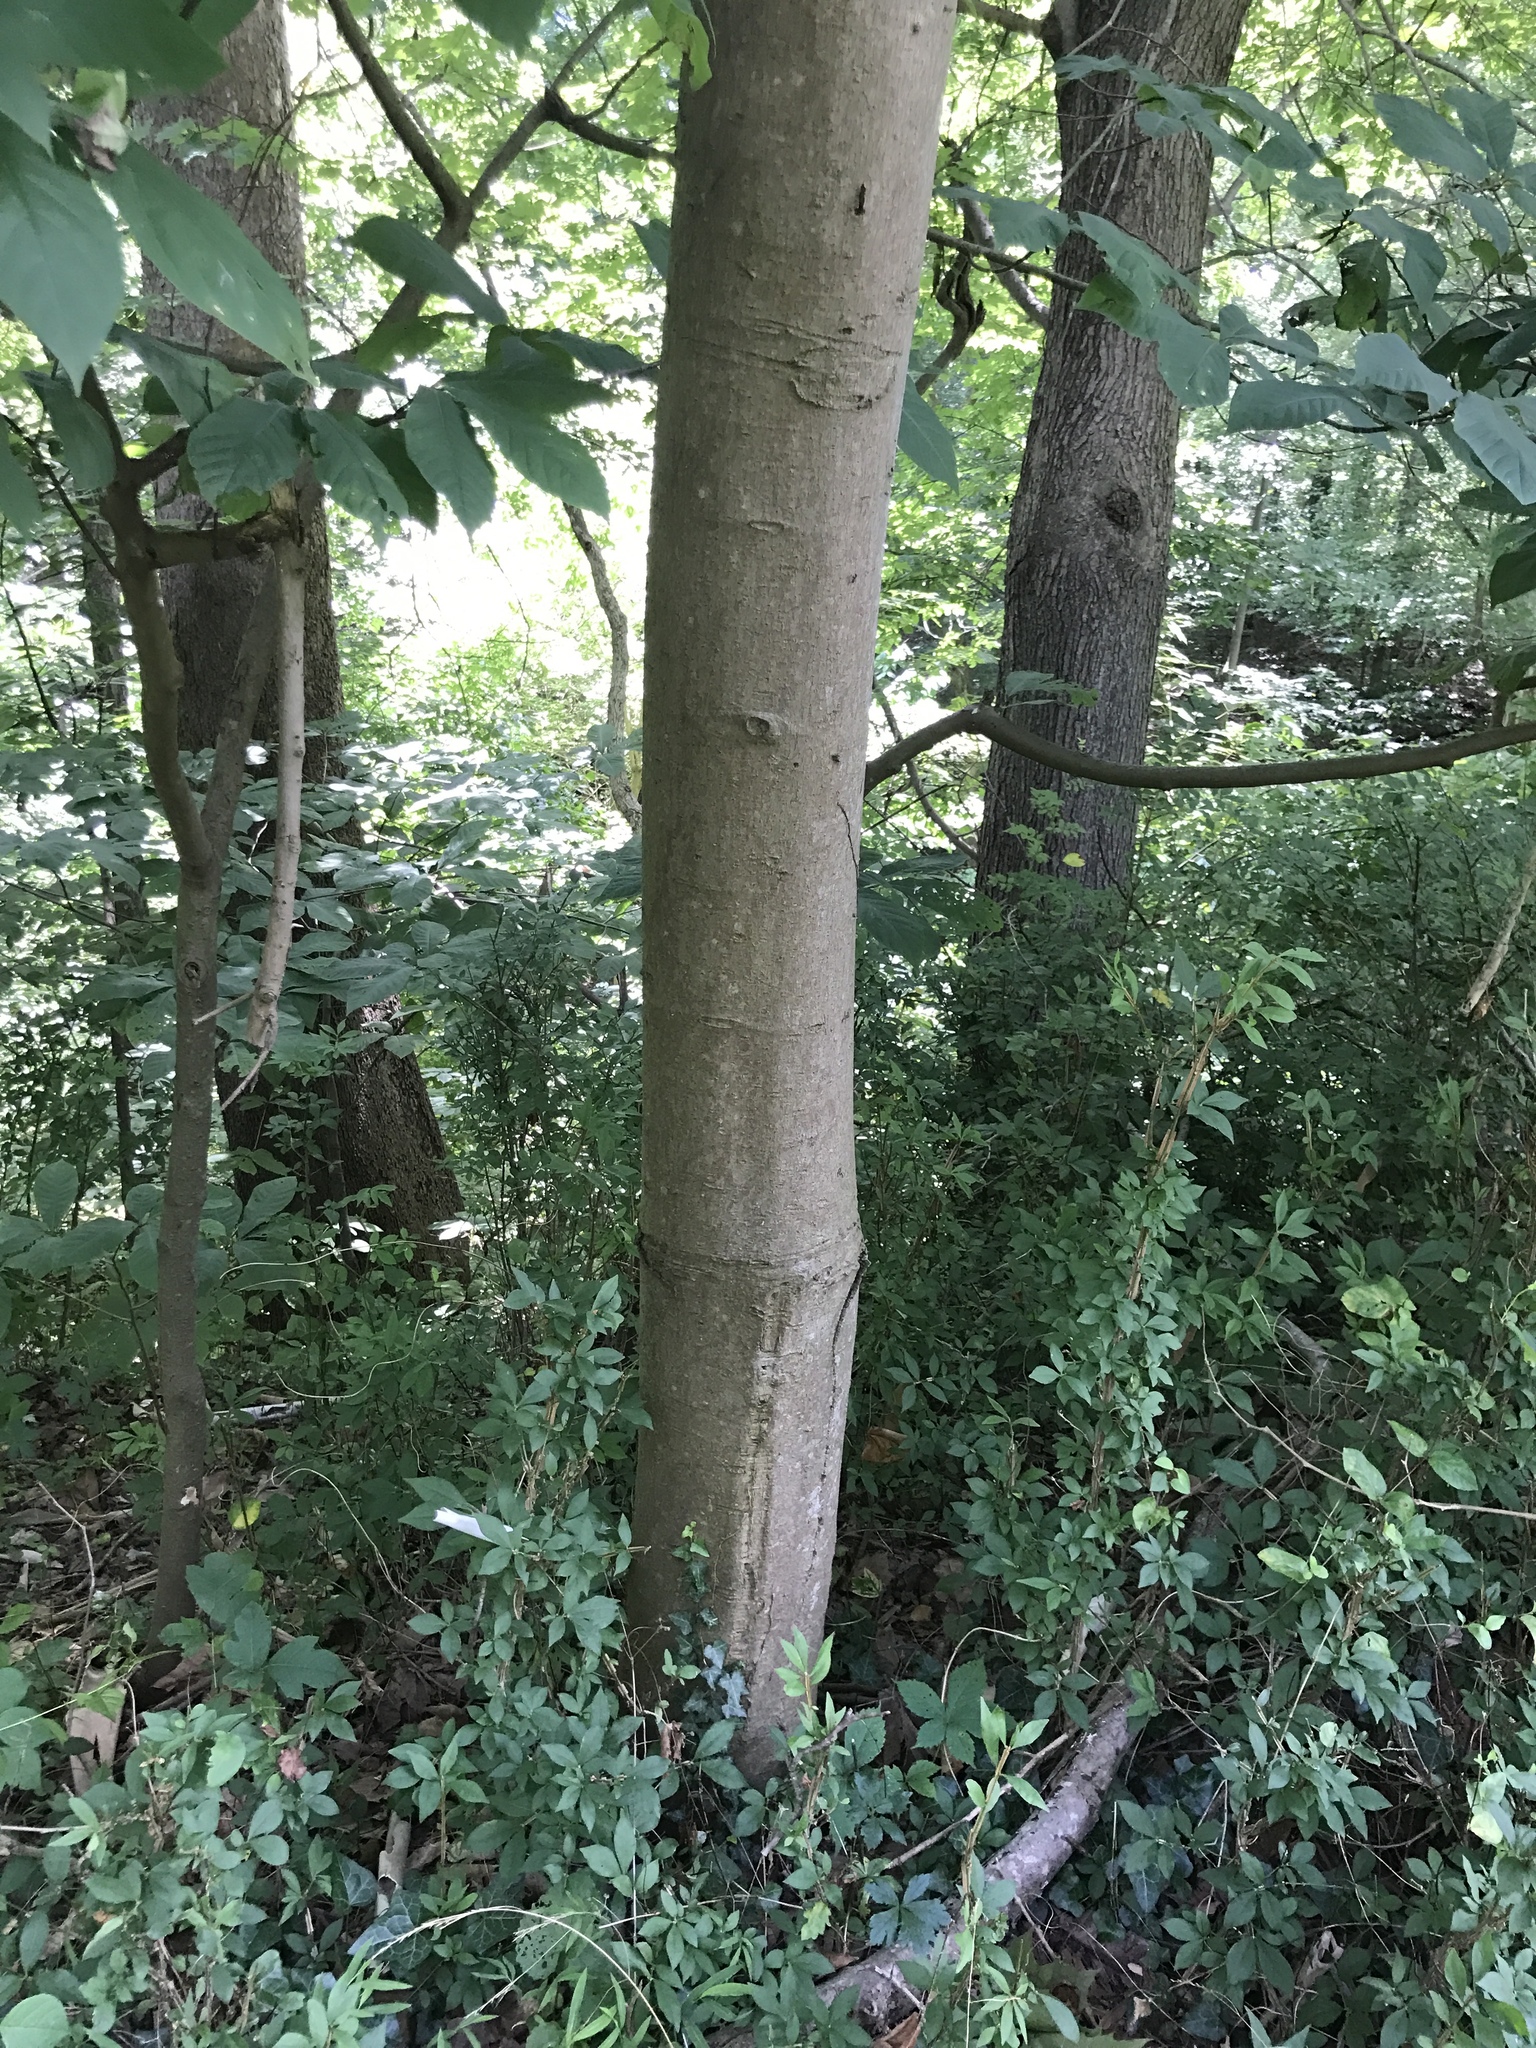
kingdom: Plantae
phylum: Tracheophyta
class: Magnoliopsida
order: Magnoliales
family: Annonaceae
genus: Asimina
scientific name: Asimina triloba
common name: Dog-banana
